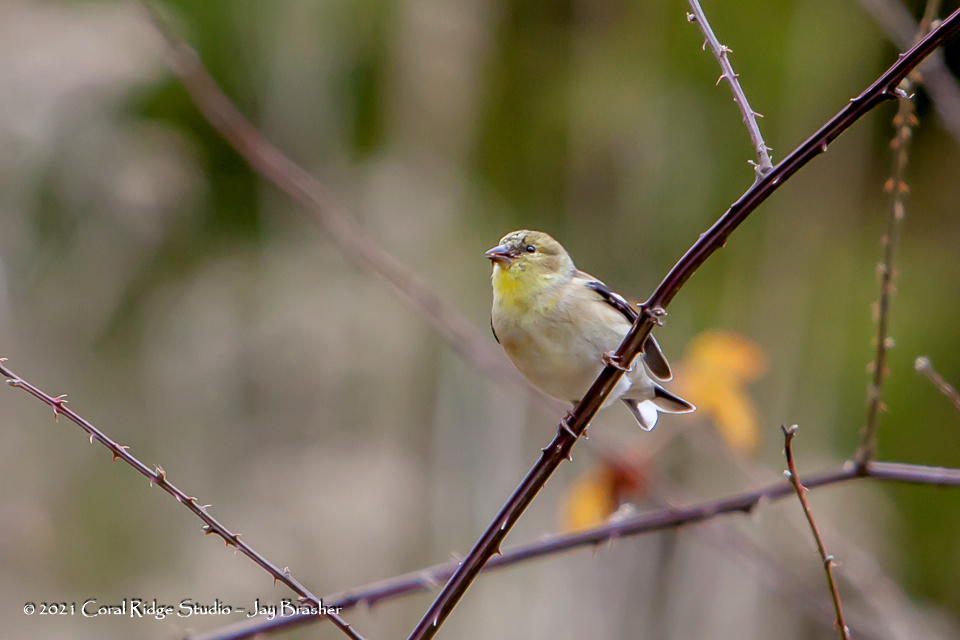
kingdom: Animalia
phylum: Chordata
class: Aves
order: Passeriformes
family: Fringillidae
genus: Spinus
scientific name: Spinus tristis
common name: American goldfinch
